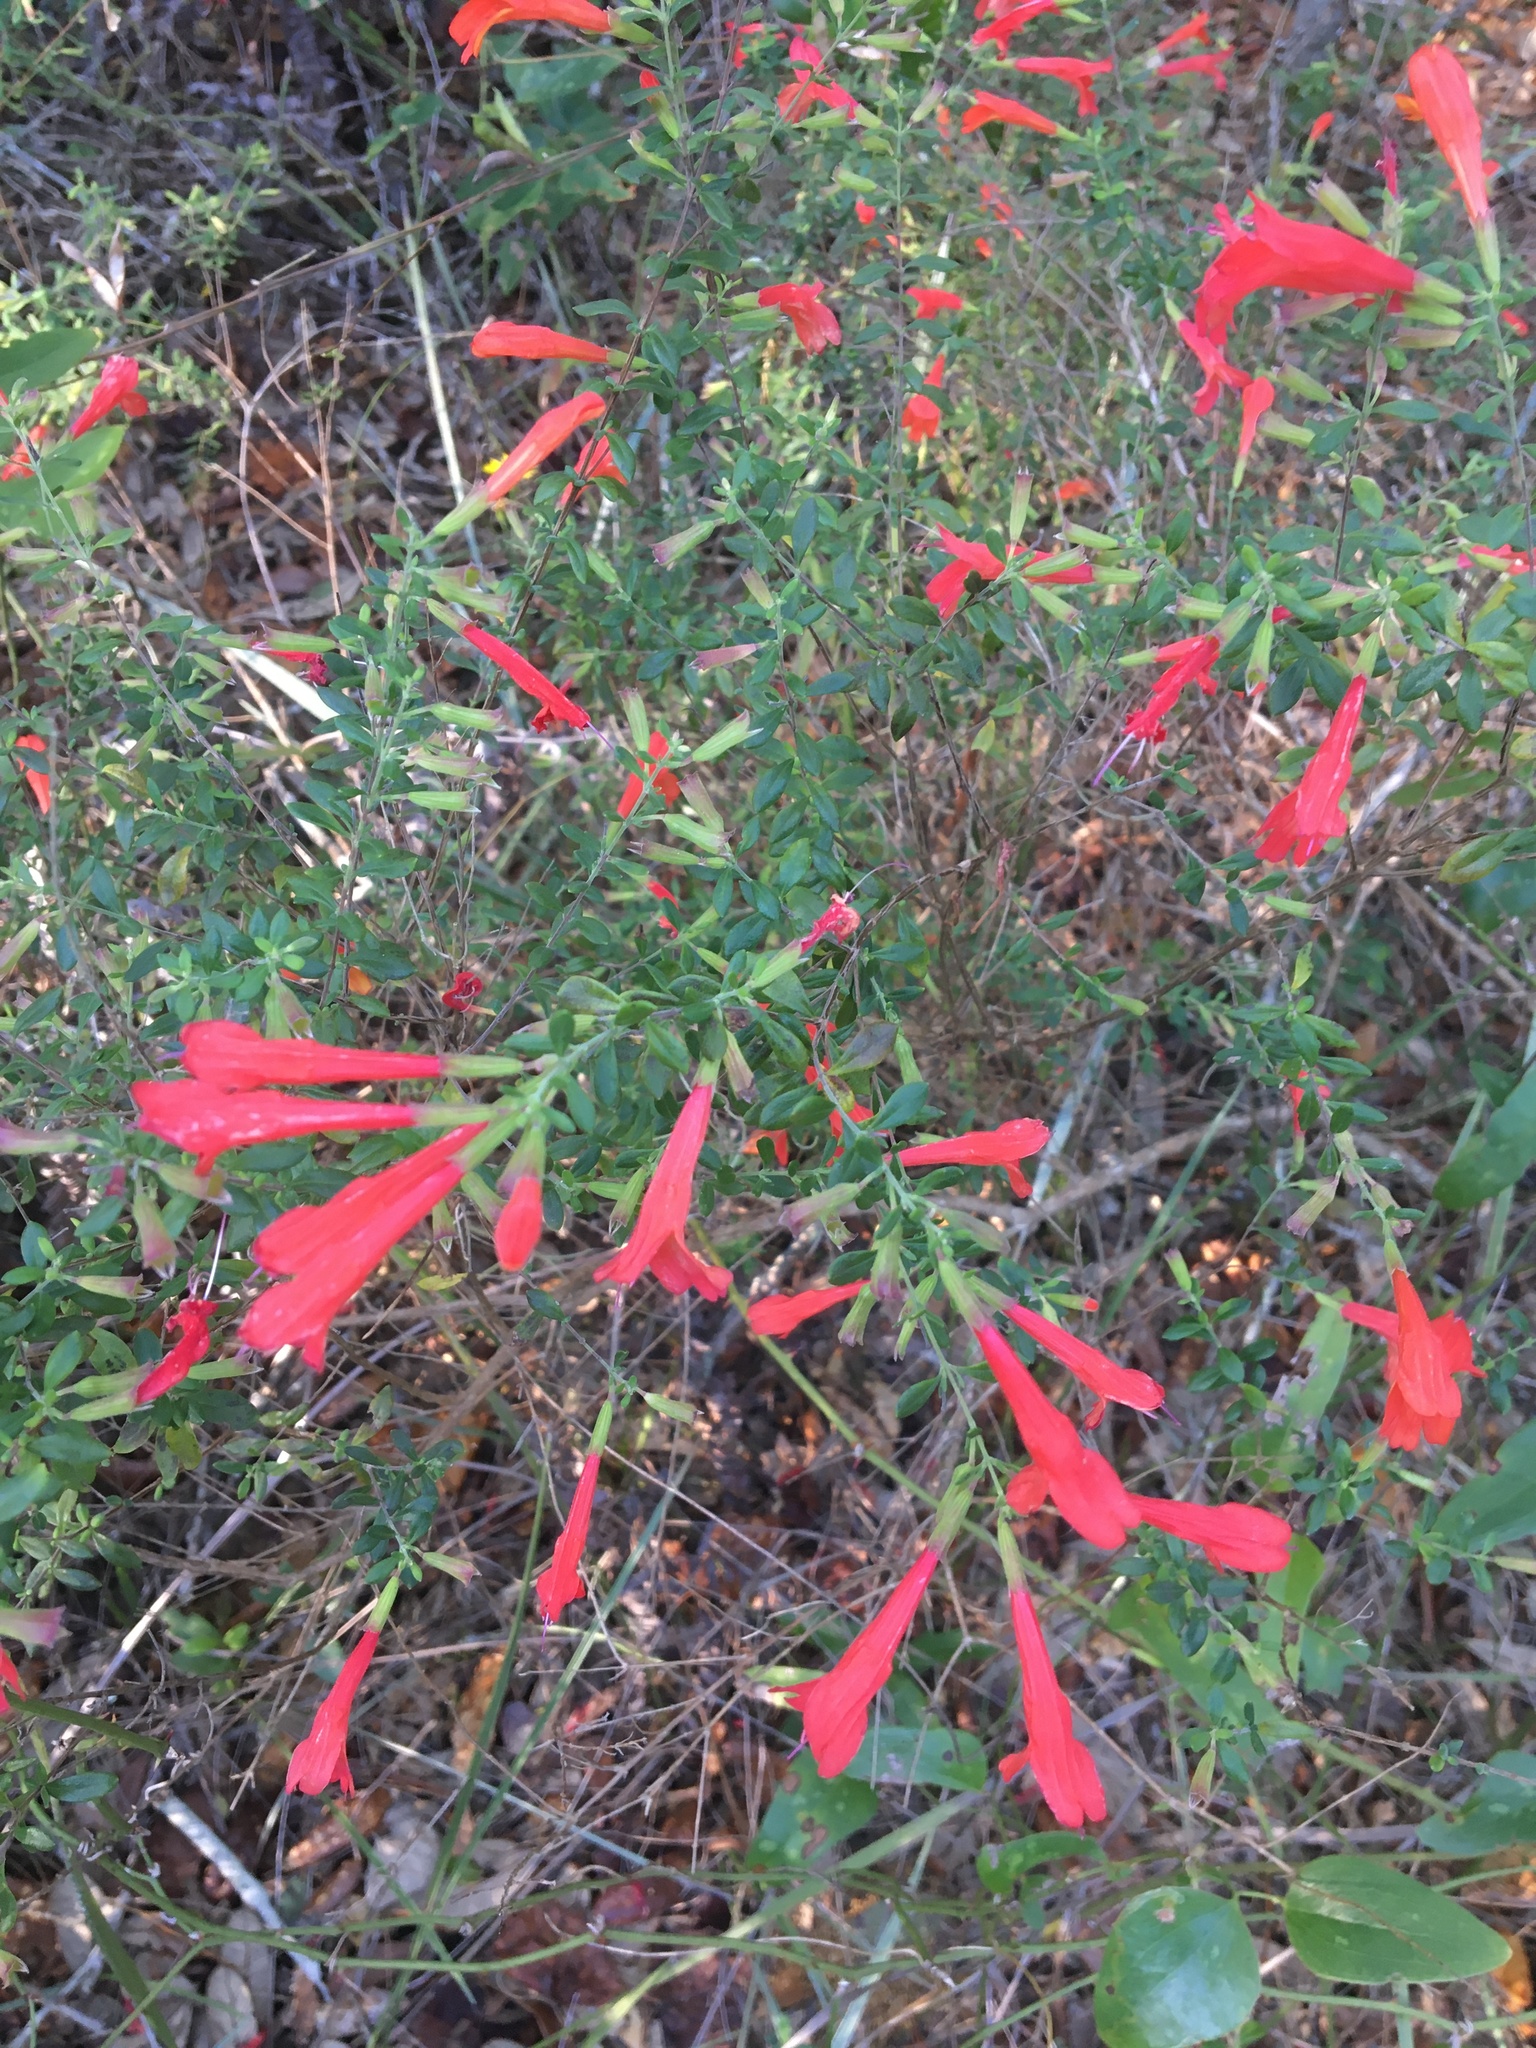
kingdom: Plantae
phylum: Tracheophyta
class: Magnoliopsida
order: Lamiales
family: Lamiaceae
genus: Clinopodium
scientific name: Clinopodium coccineum
